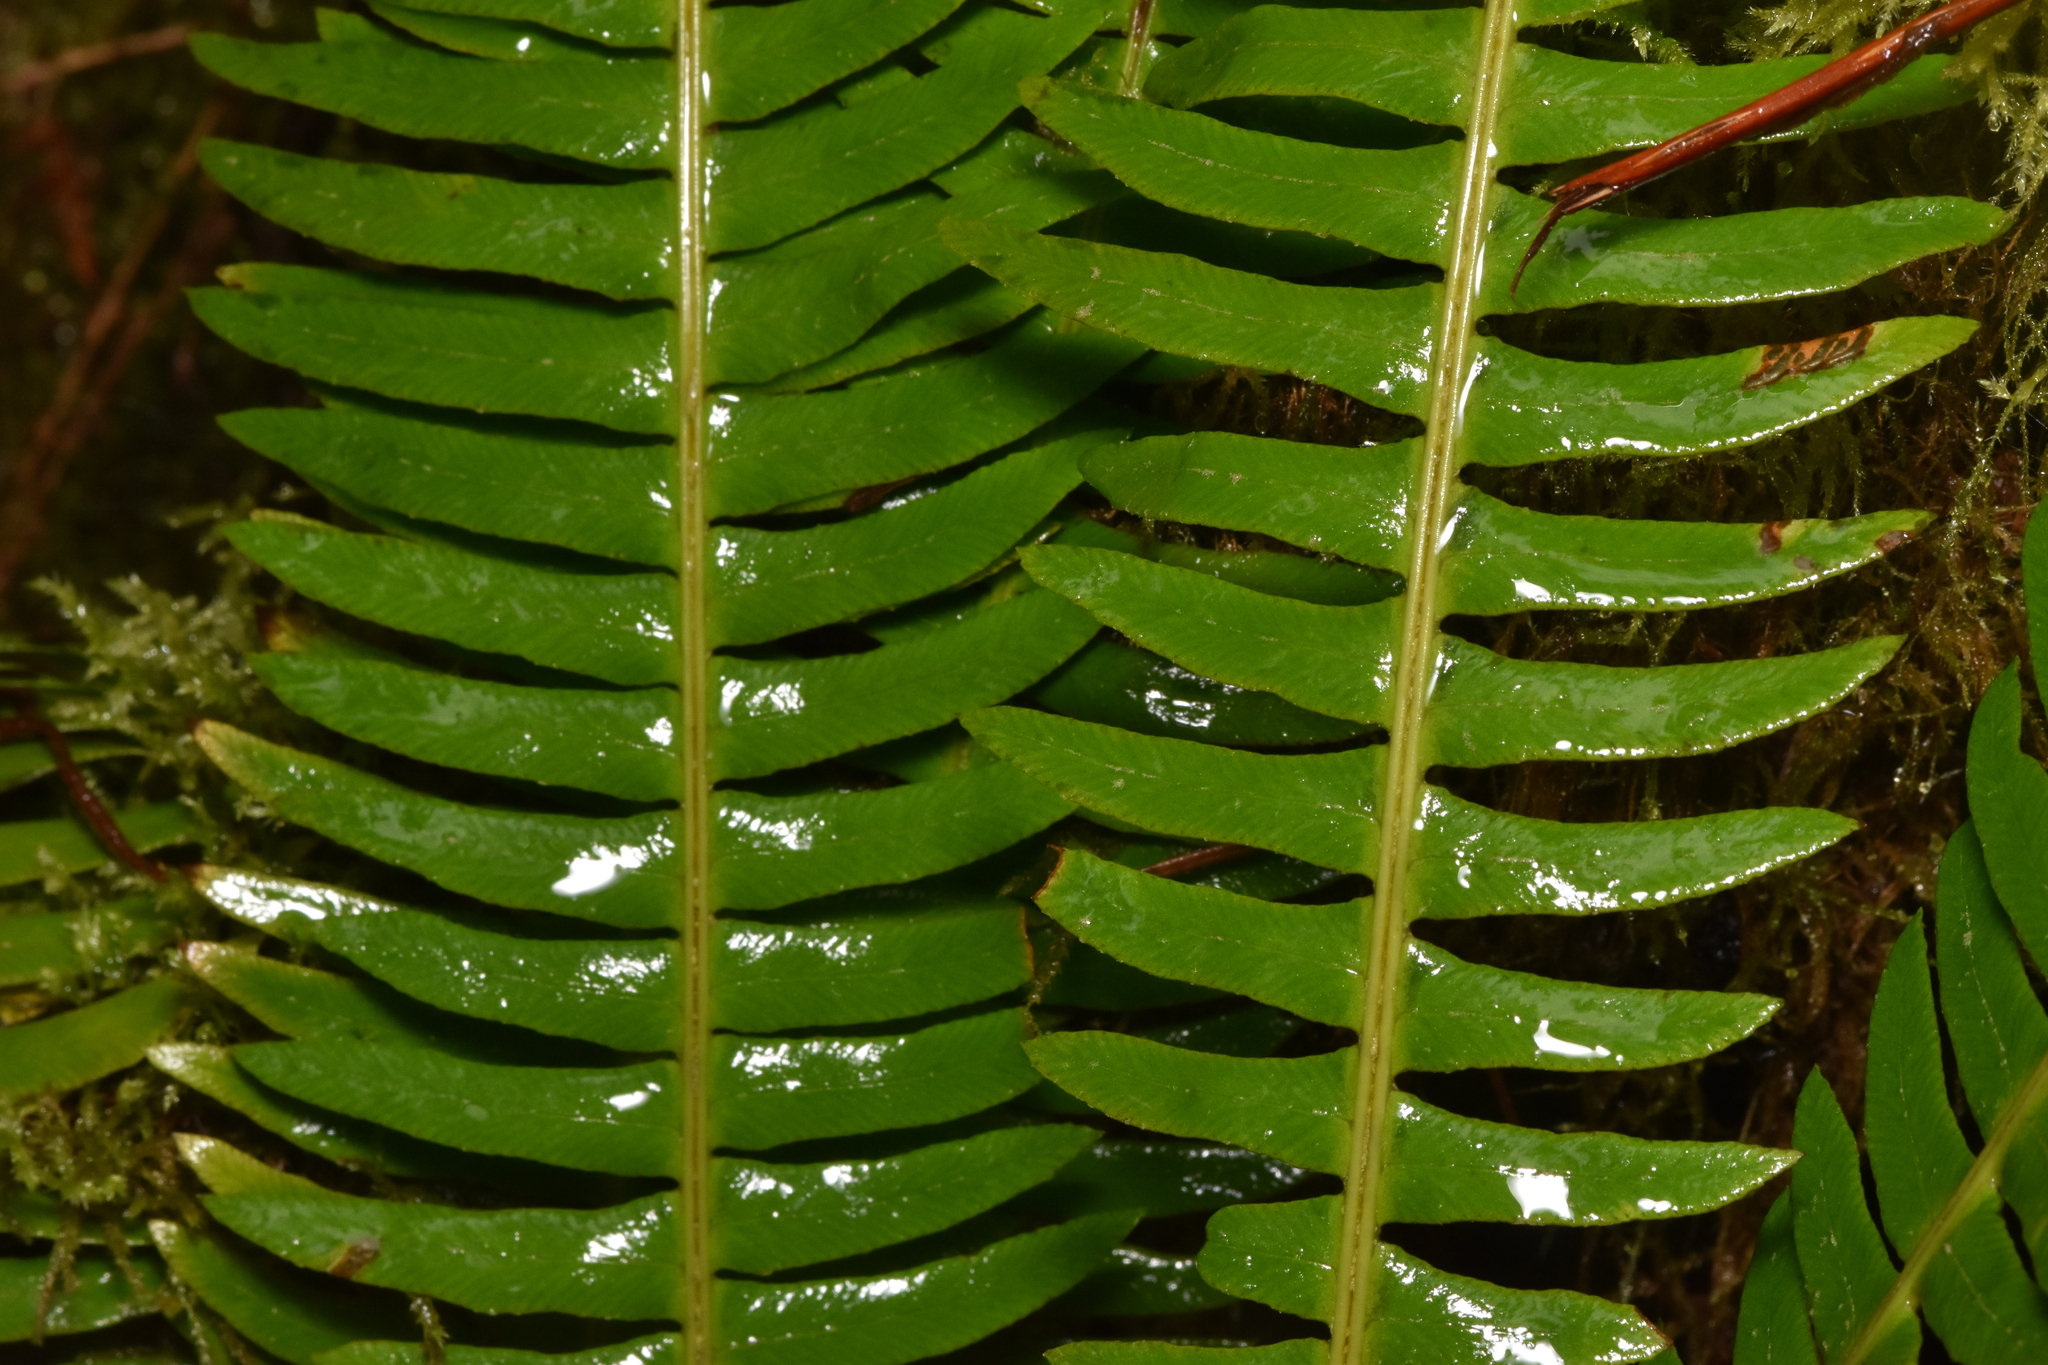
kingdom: Plantae
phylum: Tracheophyta
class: Polypodiopsida
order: Polypodiales
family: Blechnaceae
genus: Struthiopteris
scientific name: Struthiopteris spicant
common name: Deer fern
